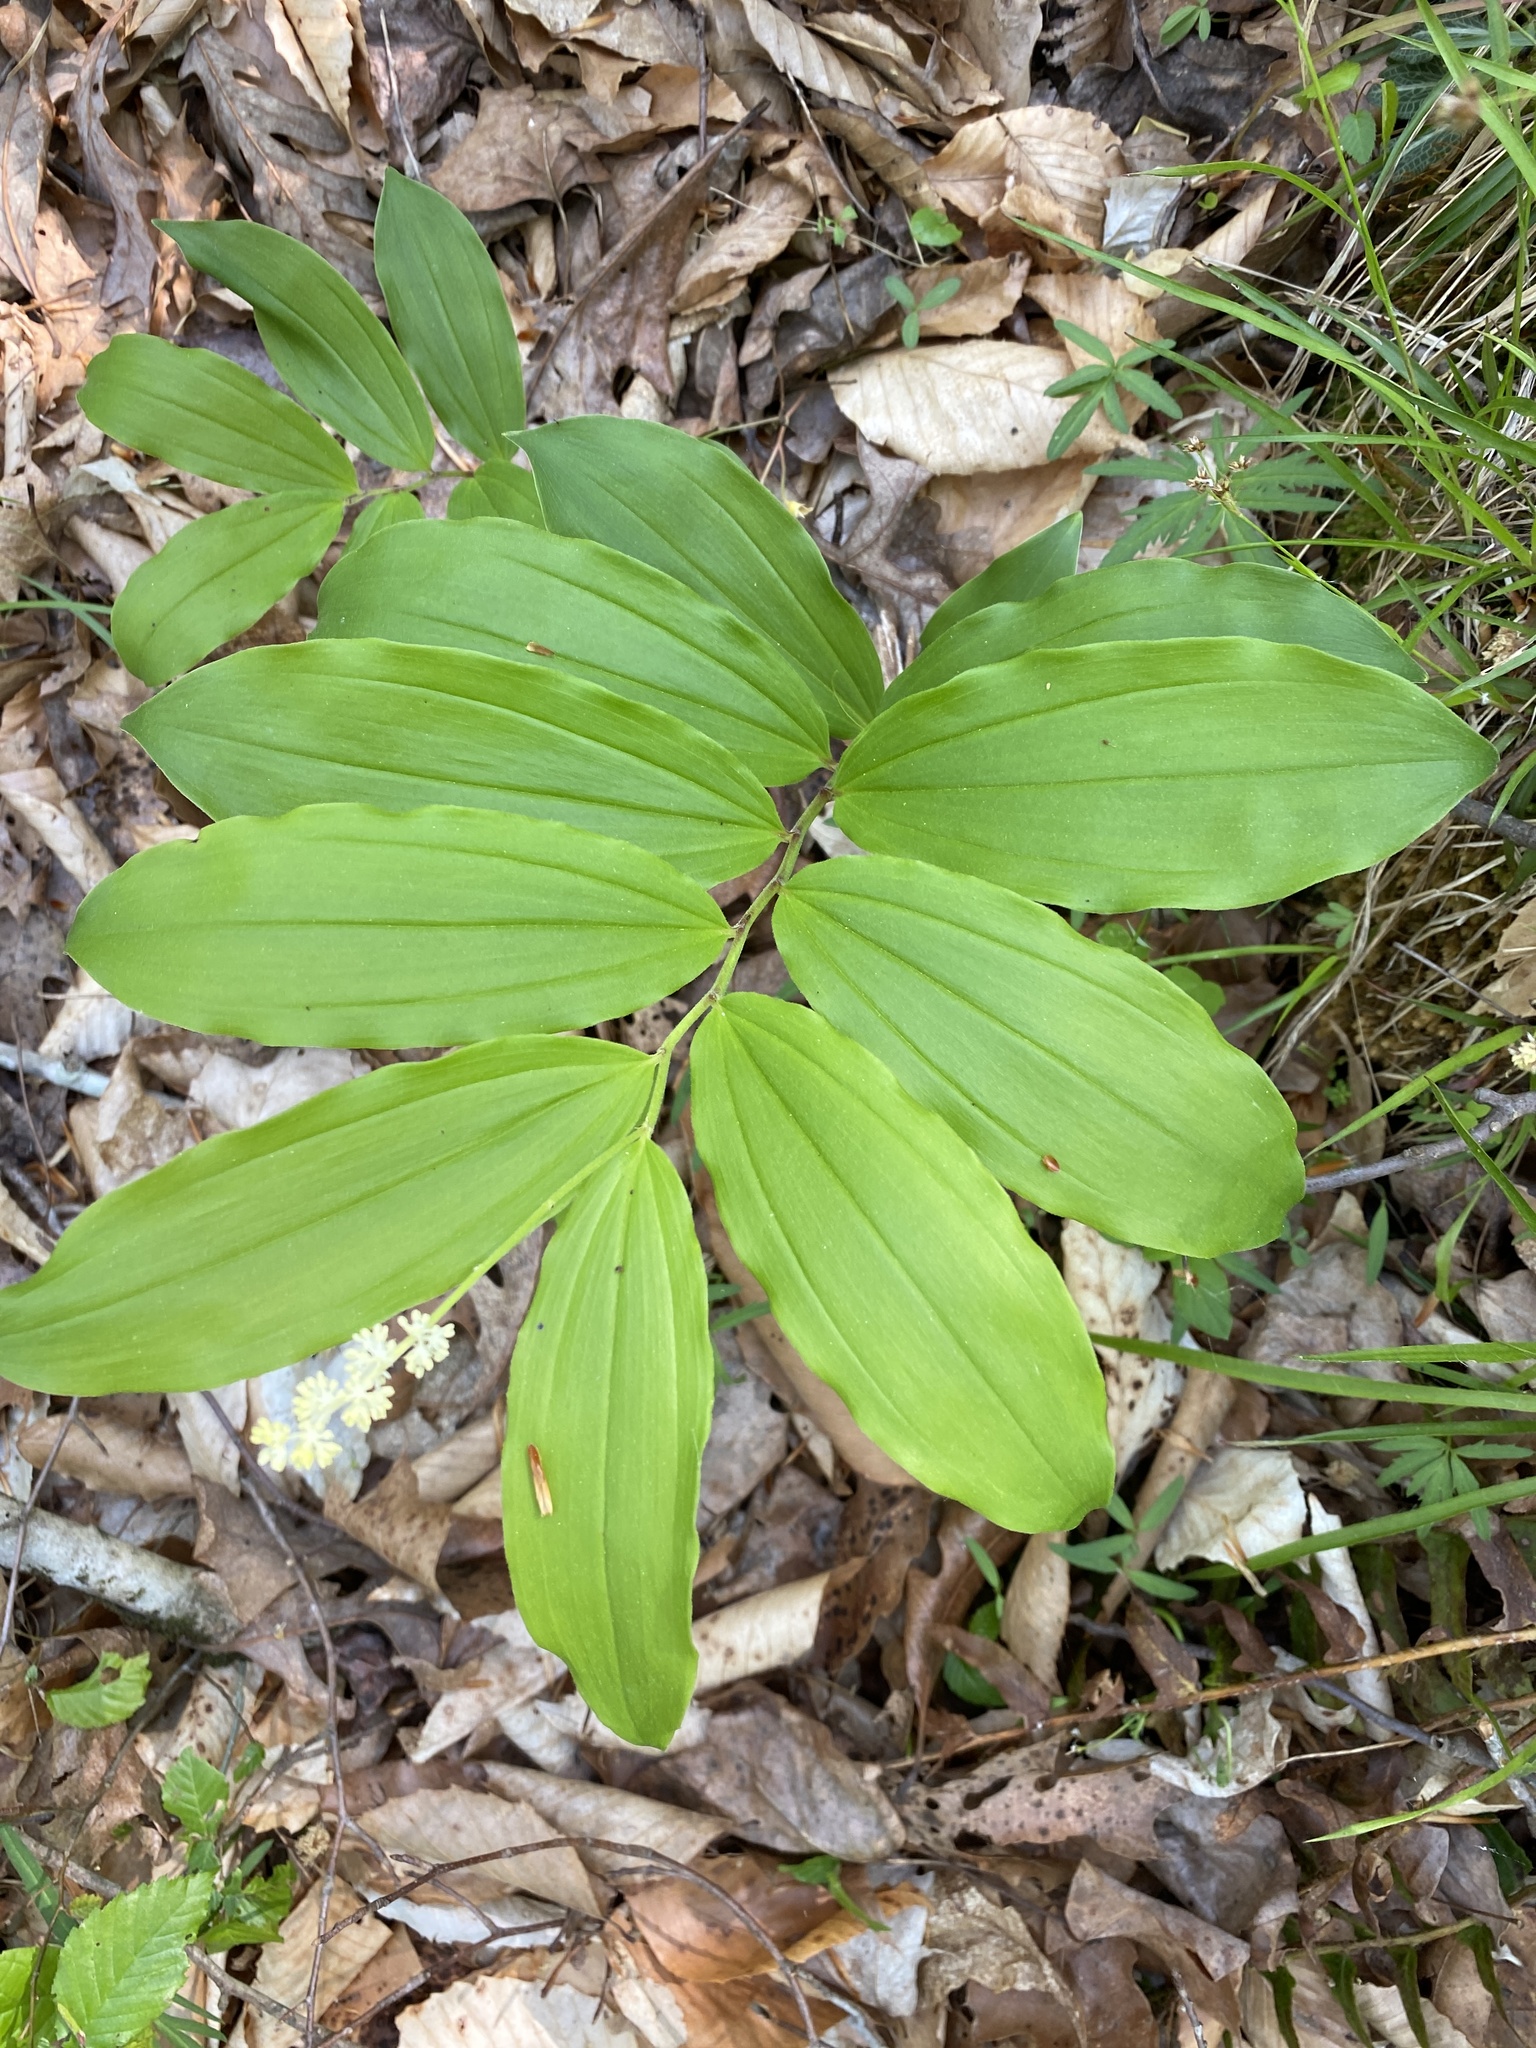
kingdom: Plantae
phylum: Tracheophyta
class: Liliopsida
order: Asparagales
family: Asparagaceae
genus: Maianthemum
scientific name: Maianthemum racemosum
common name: False spikenard
